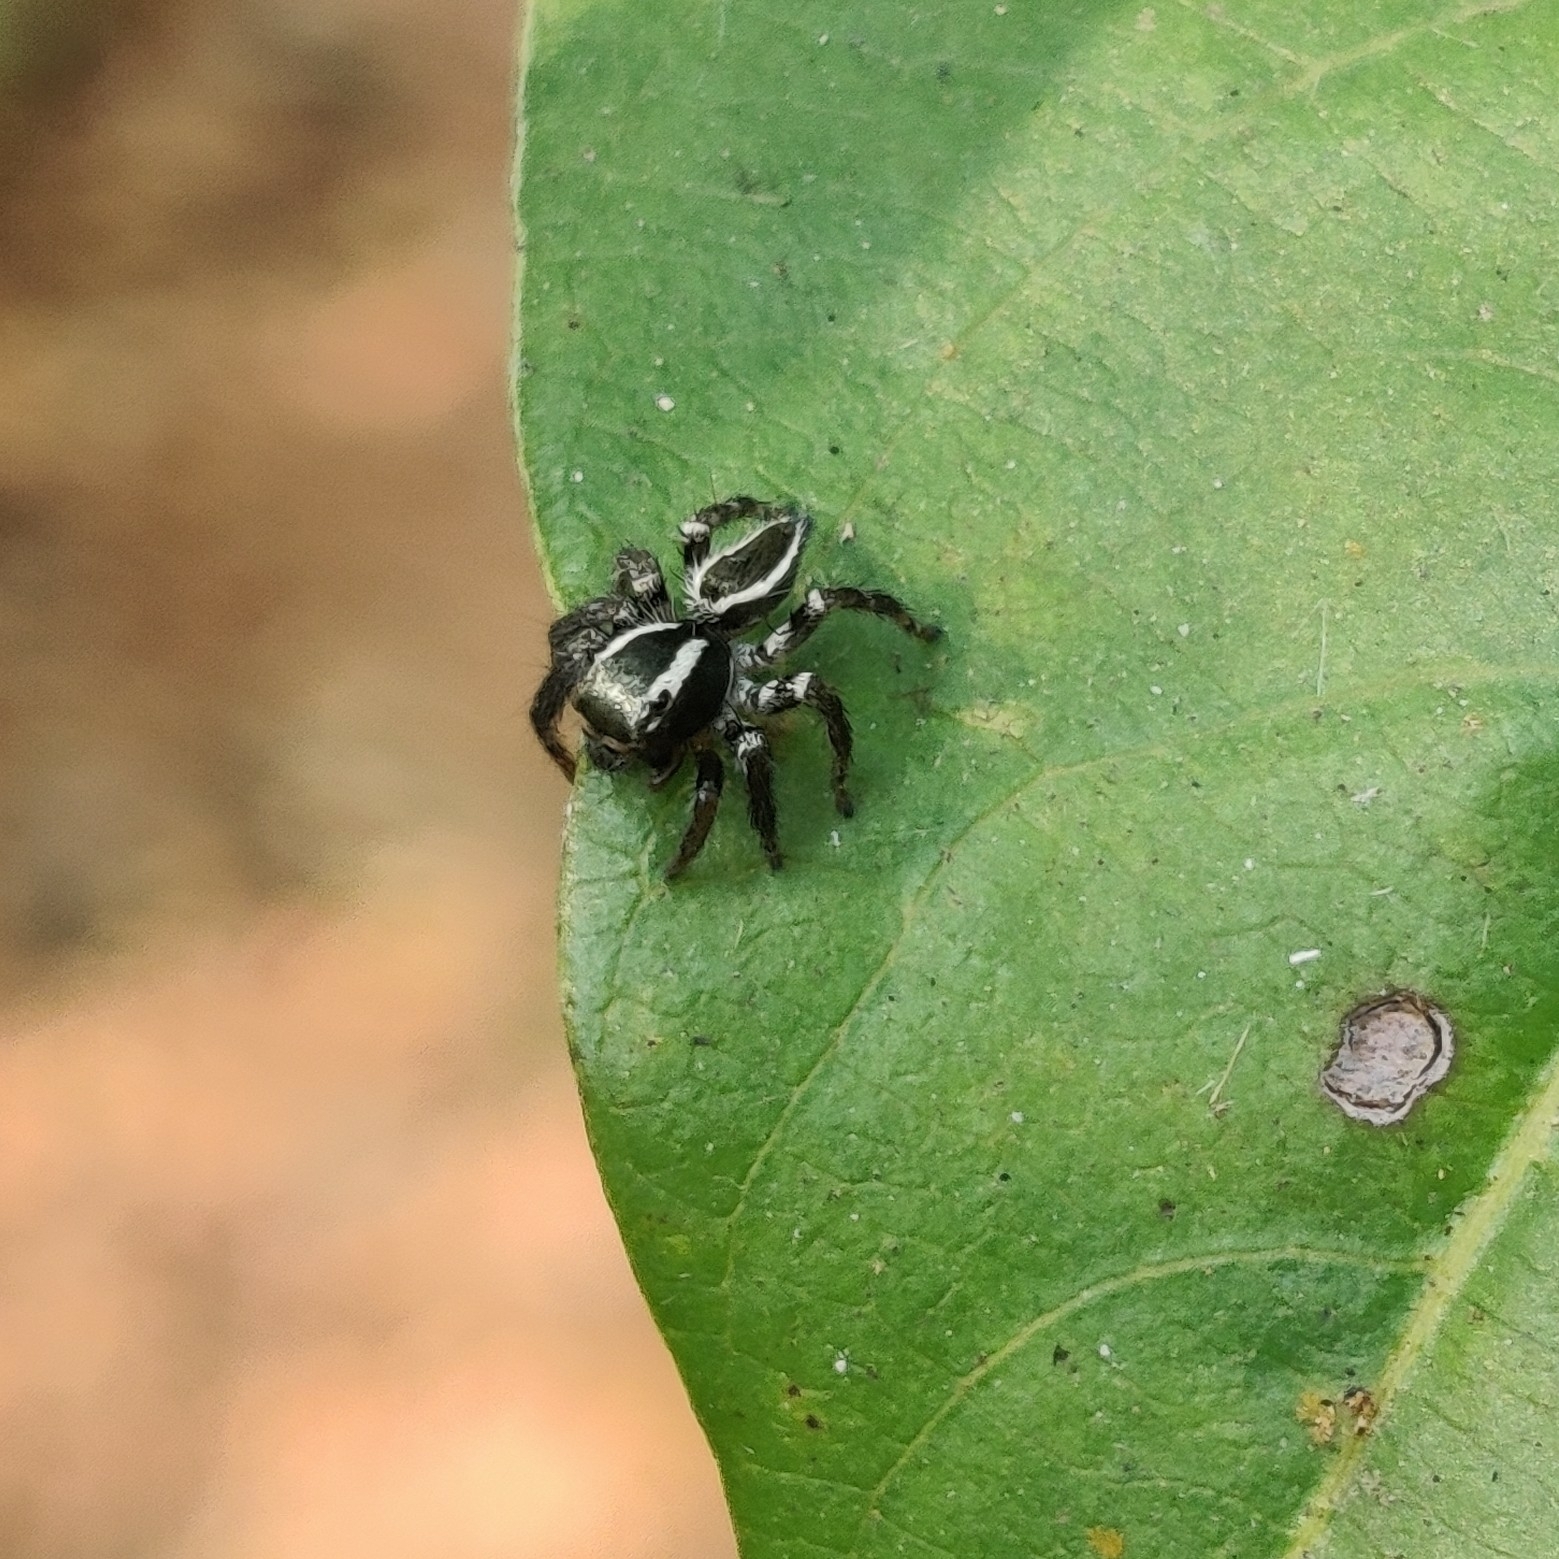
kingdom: Animalia
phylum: Arthropoda
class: Arachnida
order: Araneae
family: Salticidae
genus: Carrhotus
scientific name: Carrhotus viduus
